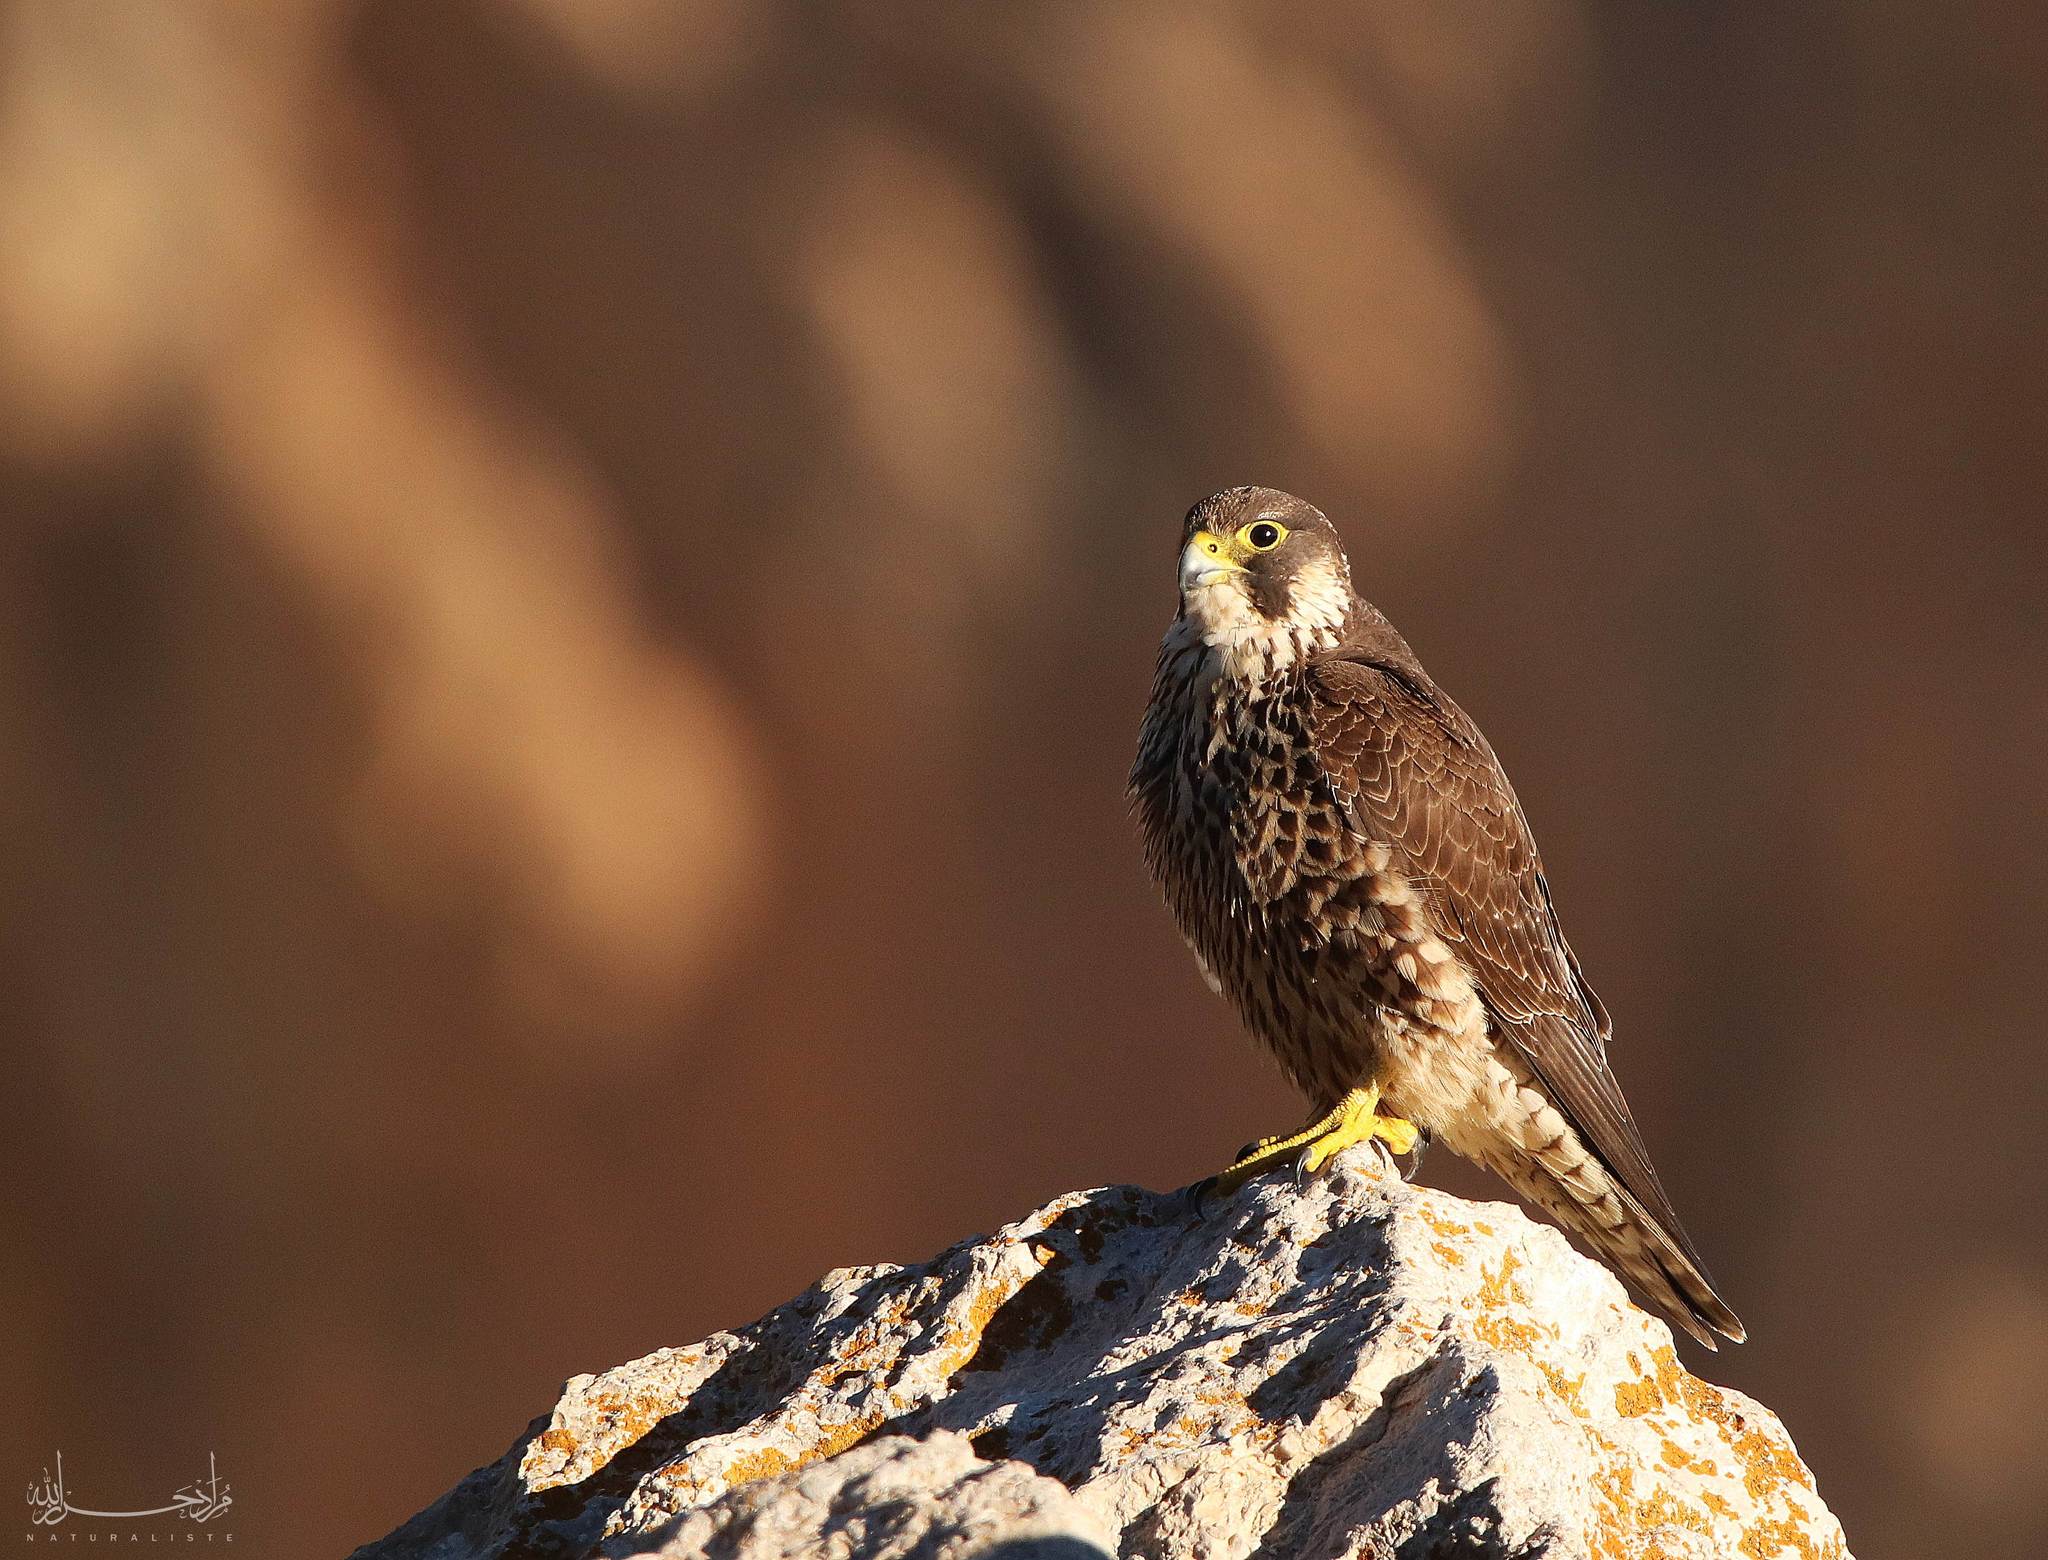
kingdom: Animalia
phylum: Chordata
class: Aves
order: Falconiformes
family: Falconidae
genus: Falco
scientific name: Falco peregrinus
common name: Peregrine falcon
